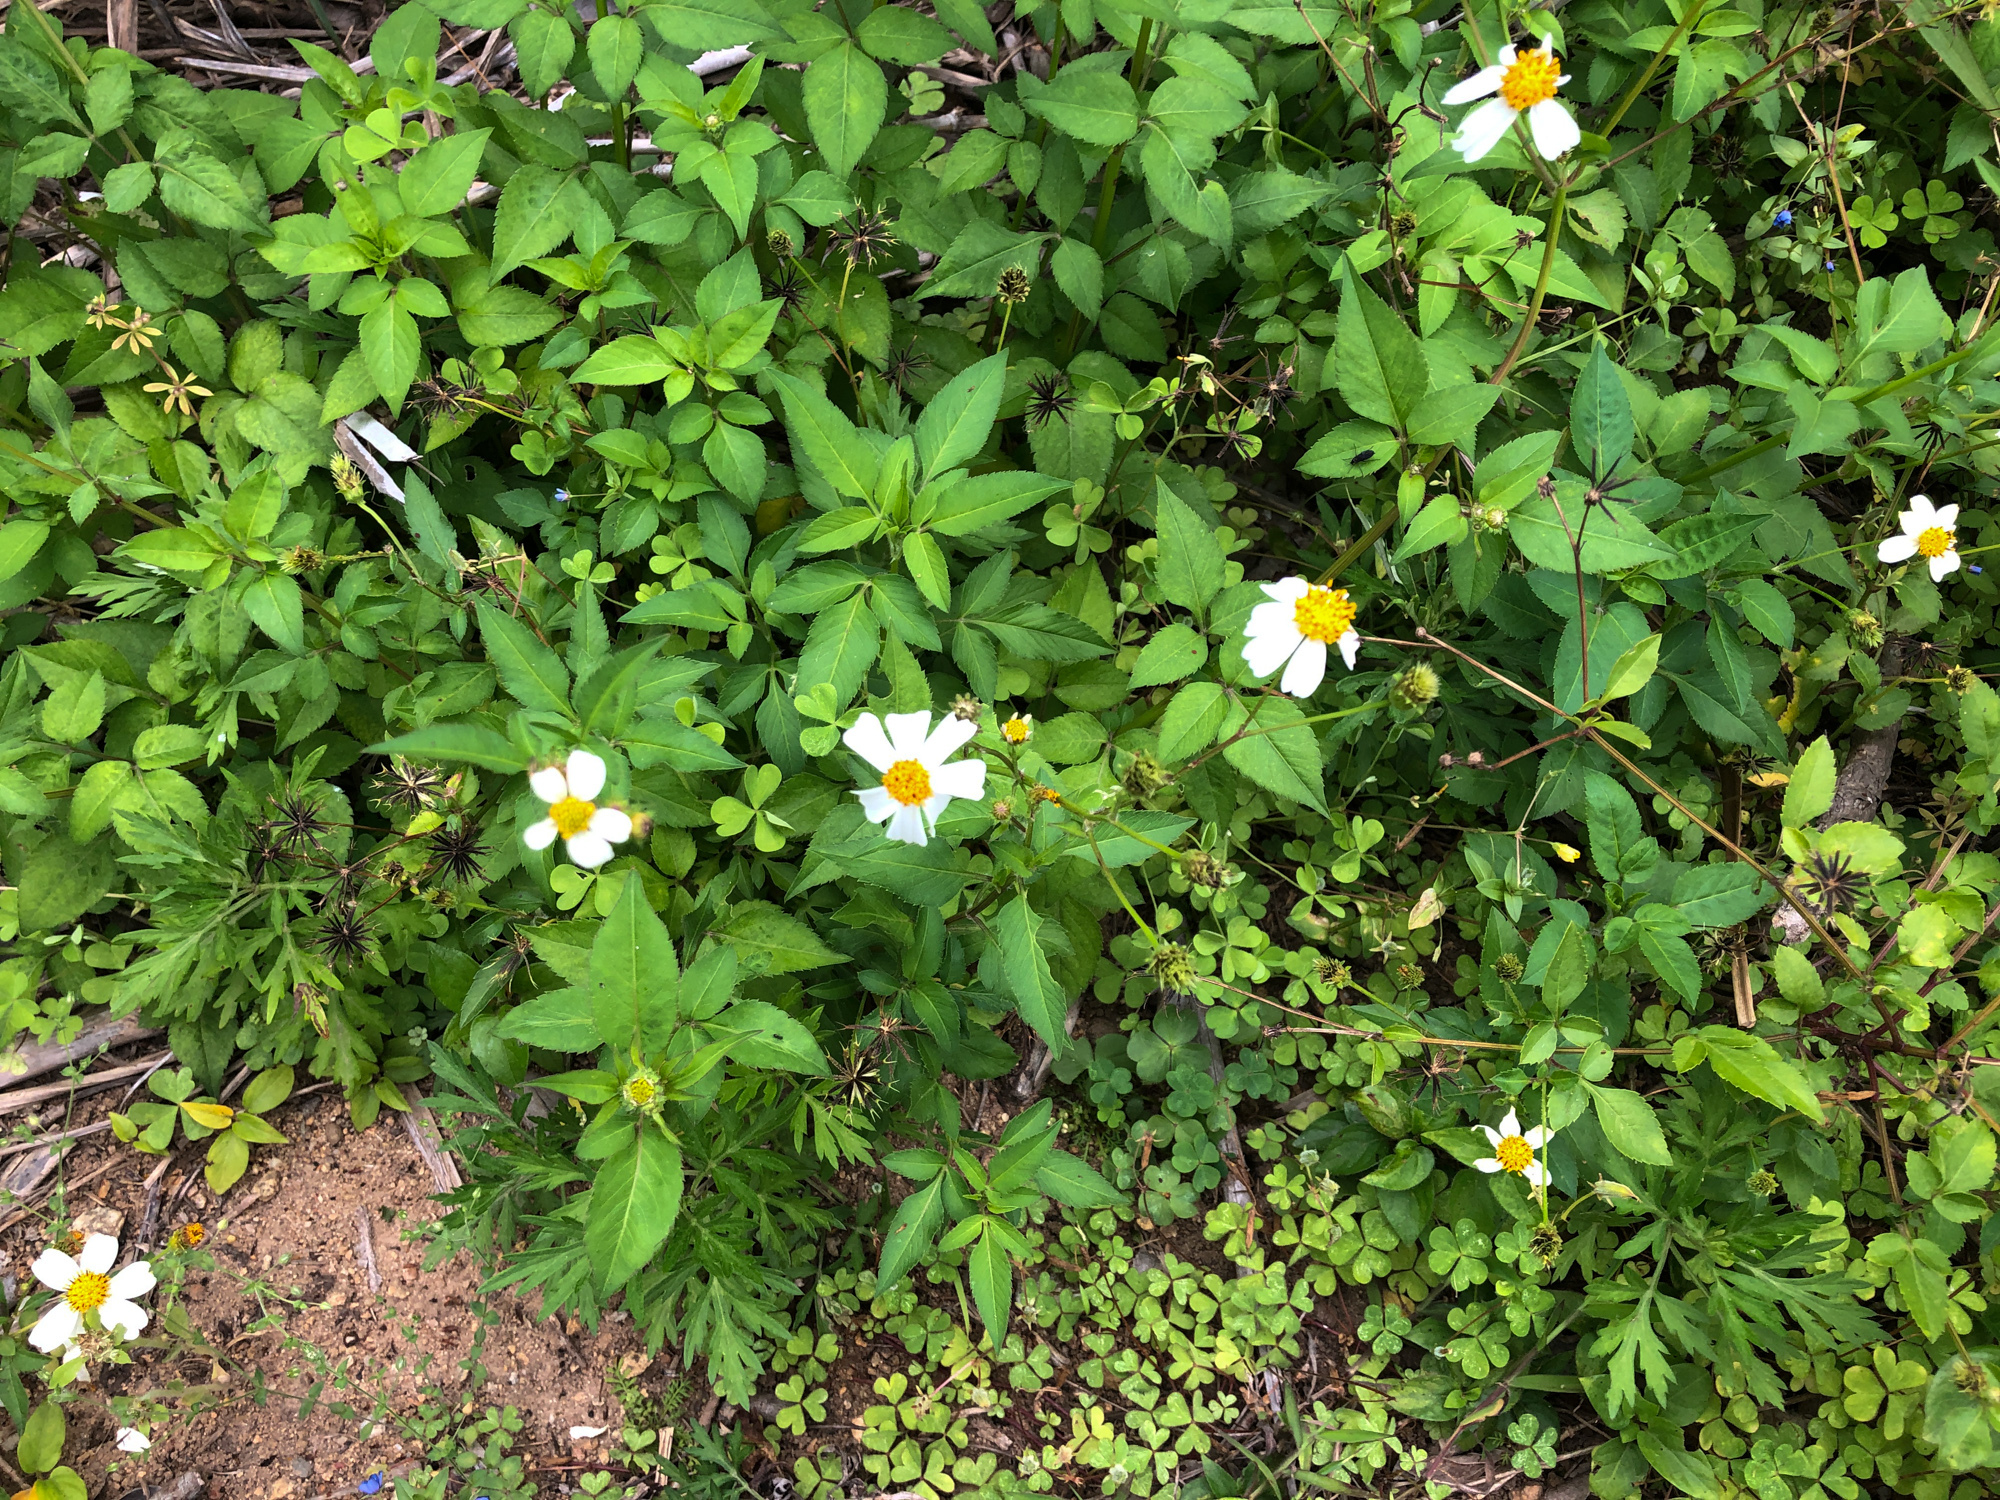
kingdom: Plantae
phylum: Tracheophyta
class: Magnoliopsida
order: Asterales
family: Asteraceae
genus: Bidens
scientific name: Bidens alba
